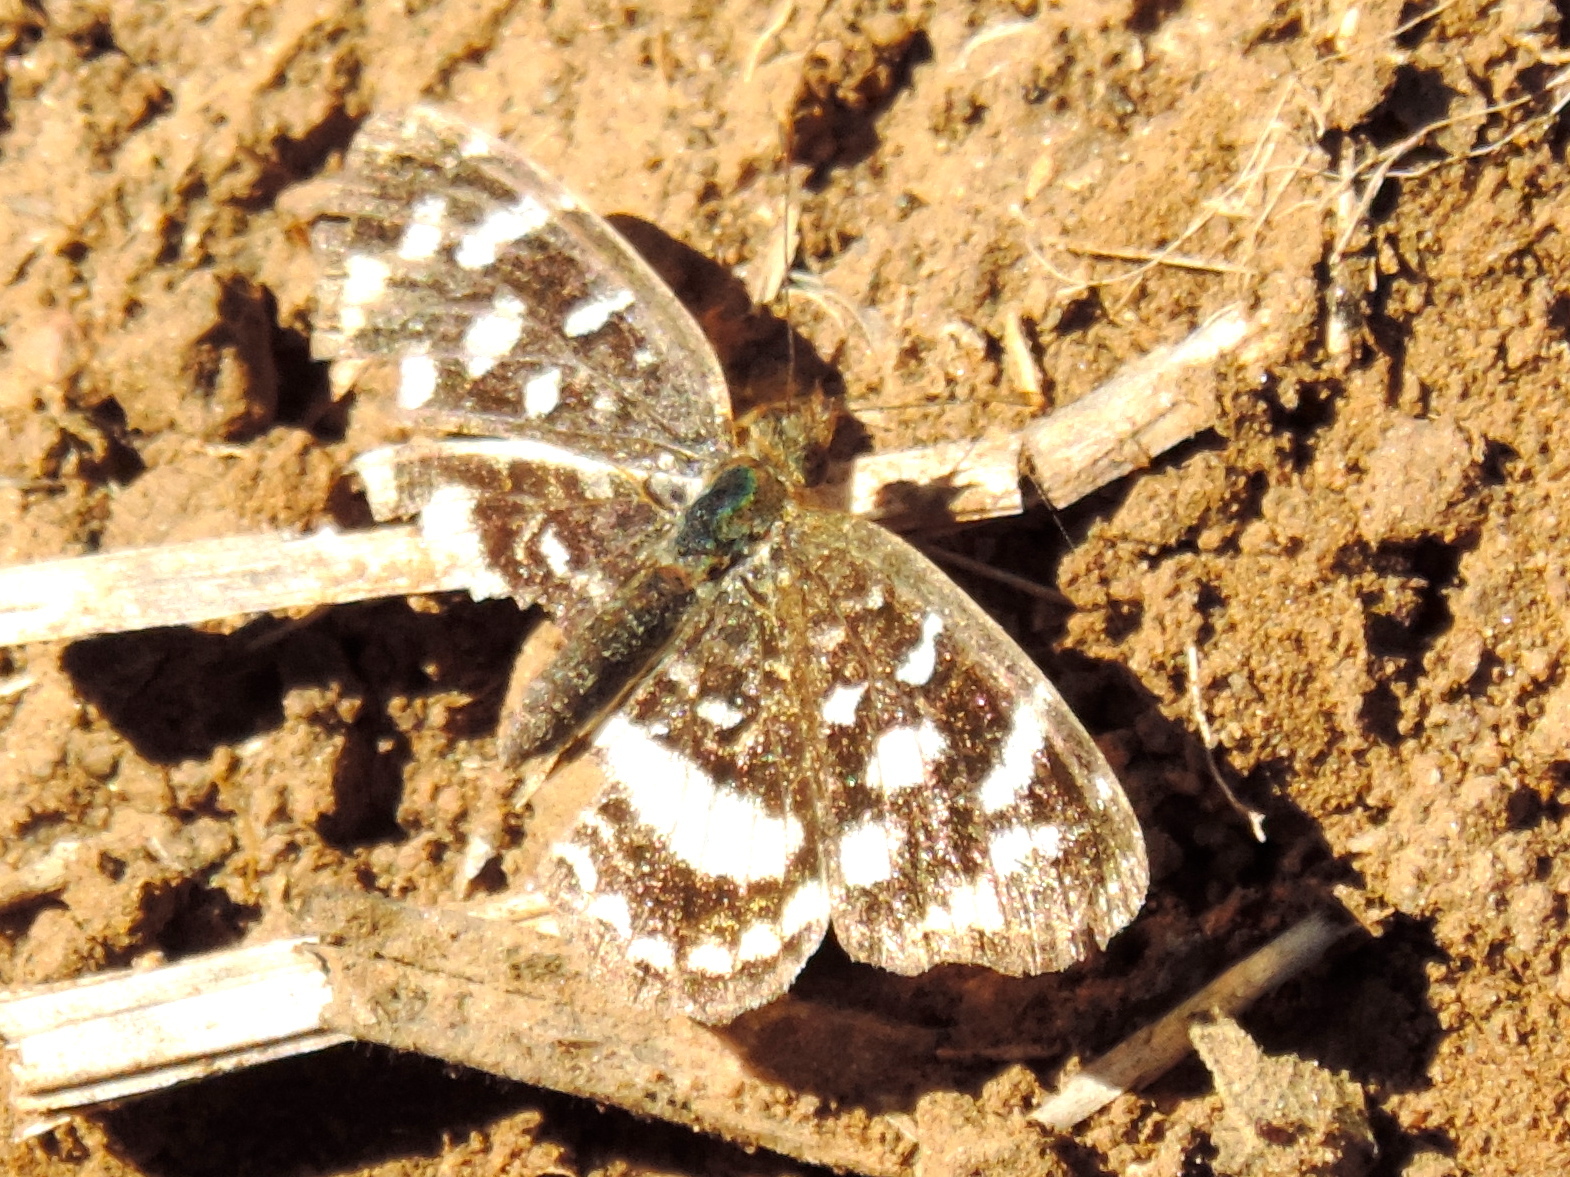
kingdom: Animalia
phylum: Arthropoda
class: Insecta
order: Lepidoptera
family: Nymphalidae
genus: Anthanassa
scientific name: Anthanassa tulcis
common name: Pale-banded crescent
